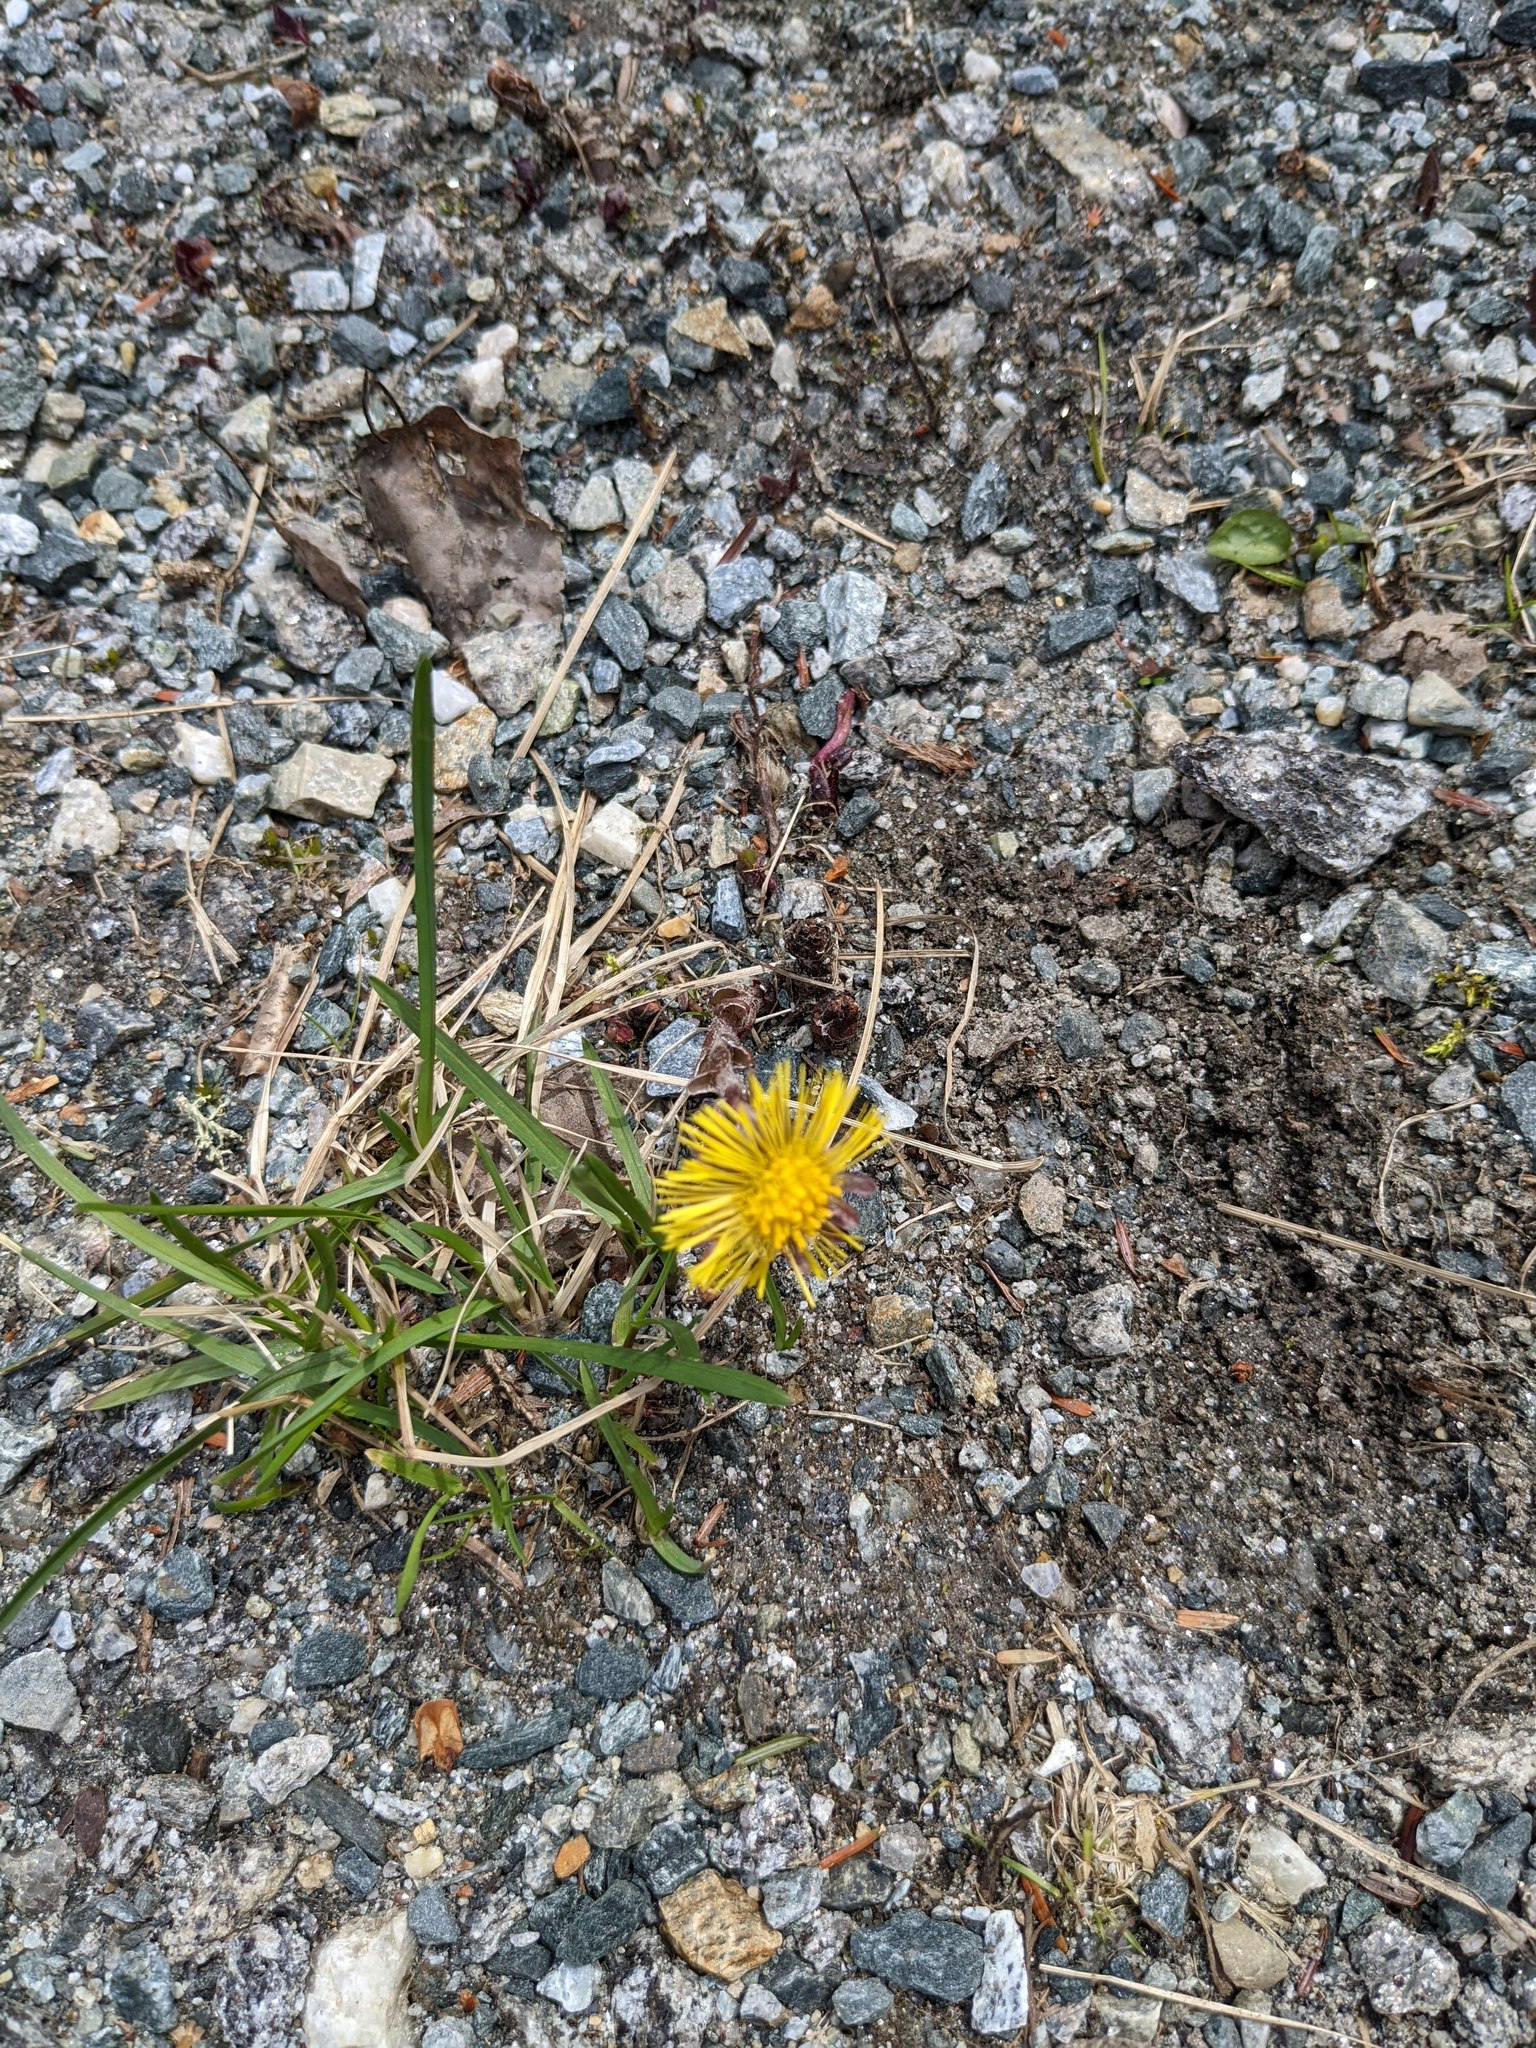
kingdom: Plantae
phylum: Tracheophyta
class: Magnoliopsida
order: Asterales
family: Asteraceae
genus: Tussilago
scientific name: Tussilago farfara
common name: Coltsfoot
